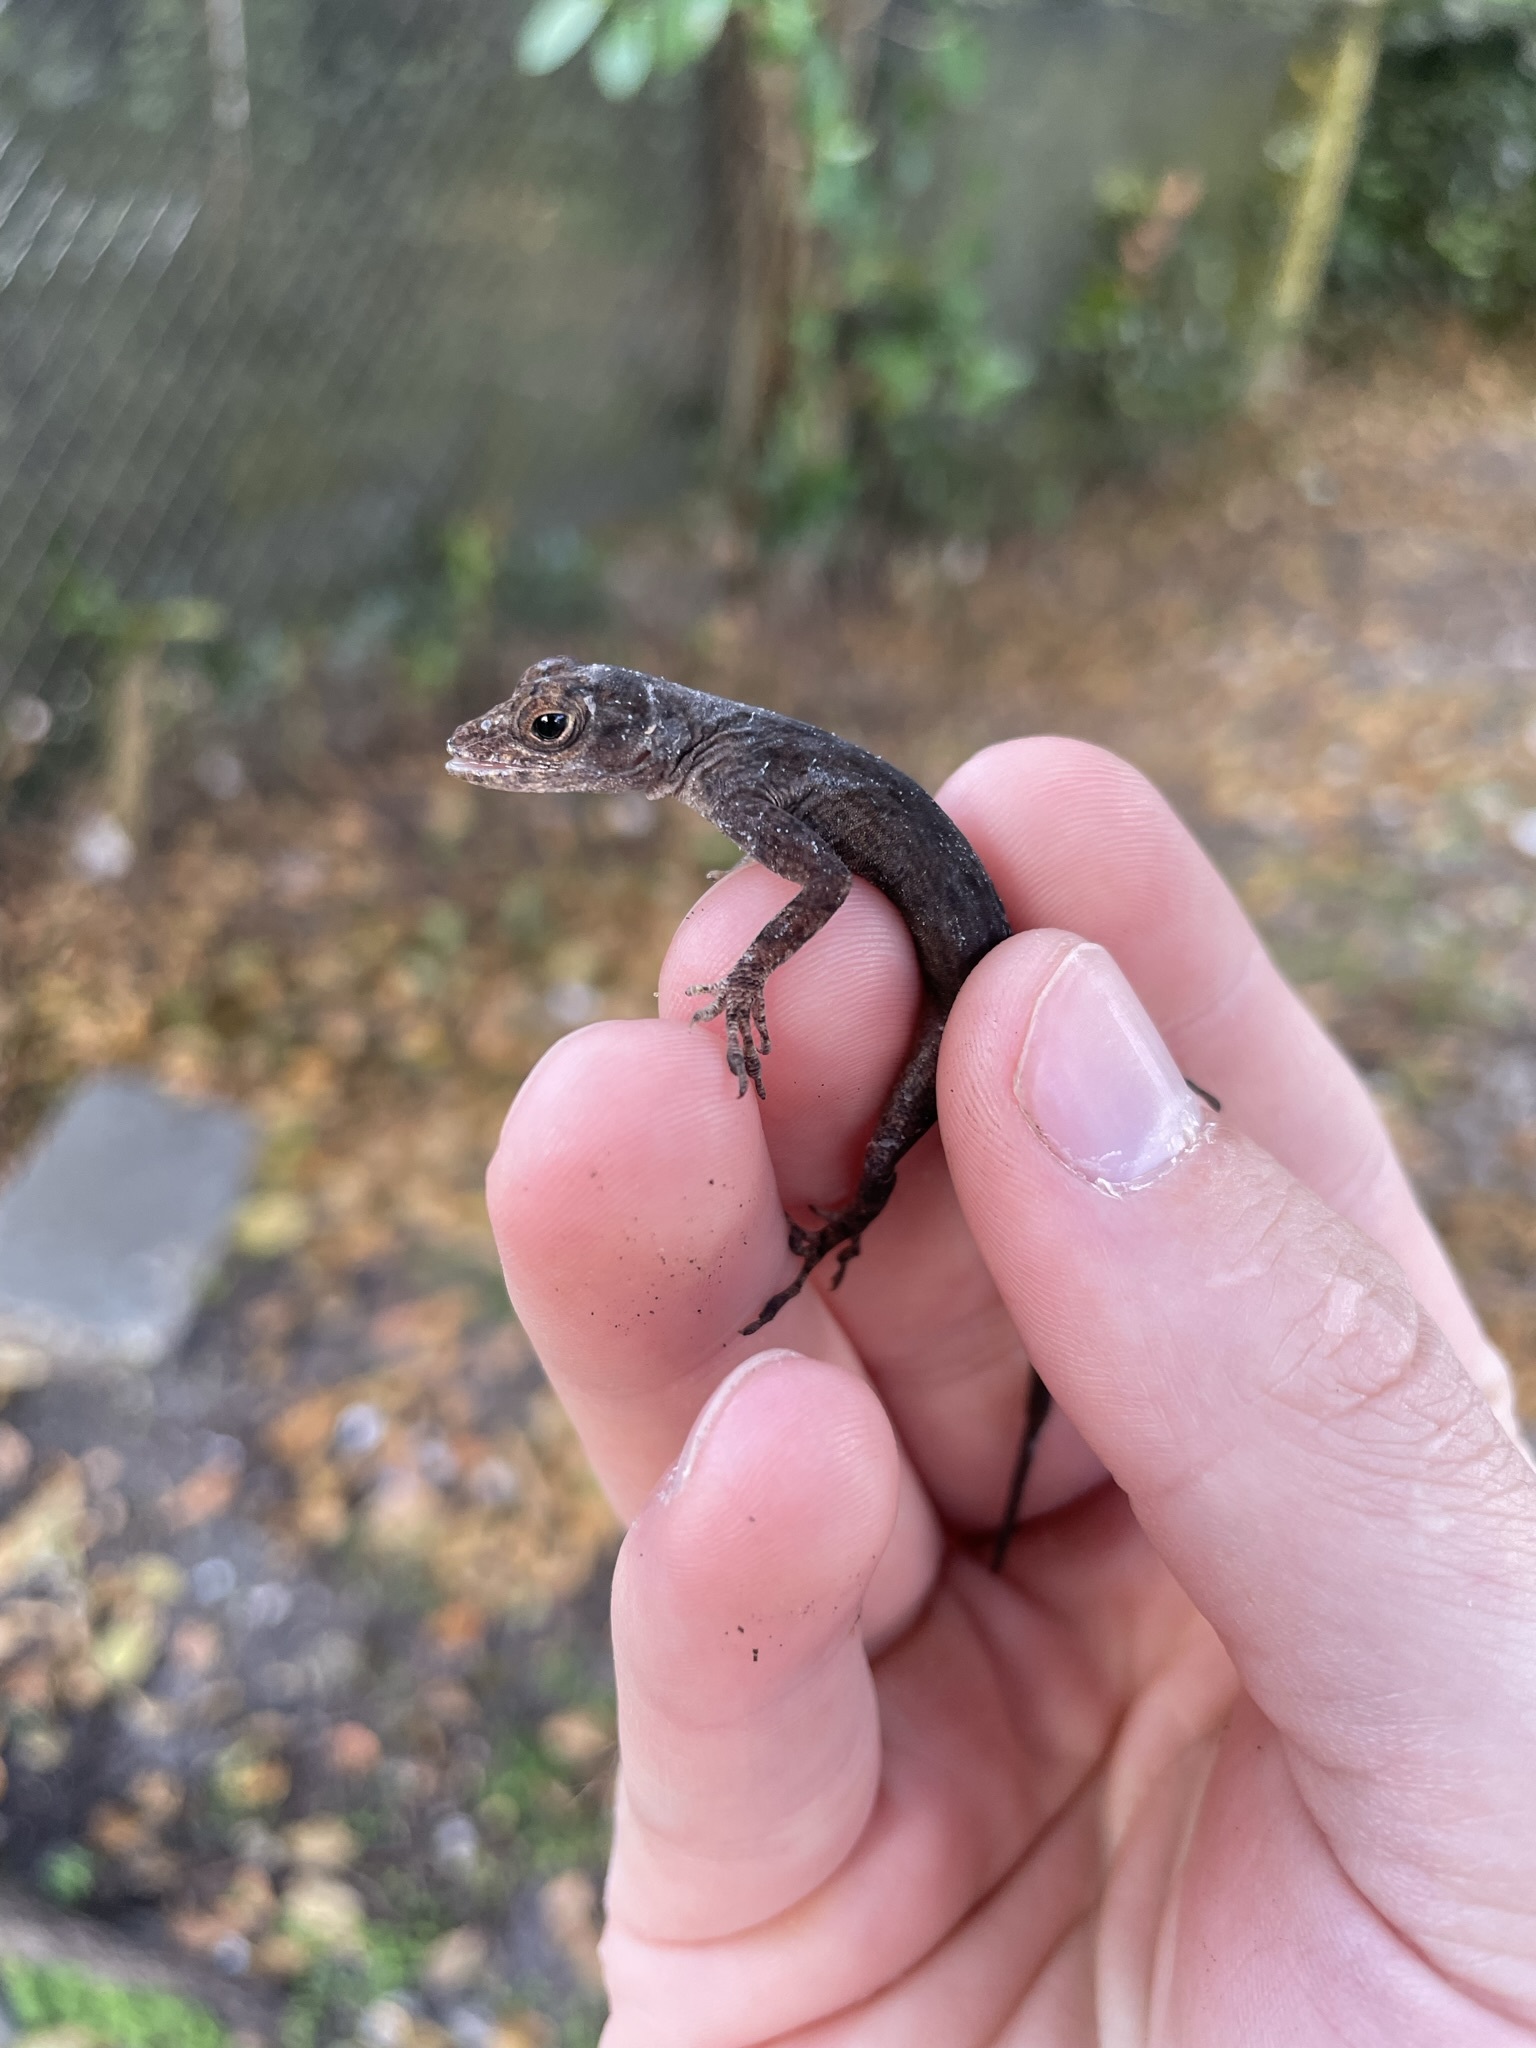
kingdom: Animalia
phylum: Chordata
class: Squamata
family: Dactyloidae
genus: Anolis
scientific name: Anolis distichus
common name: Bark anole
